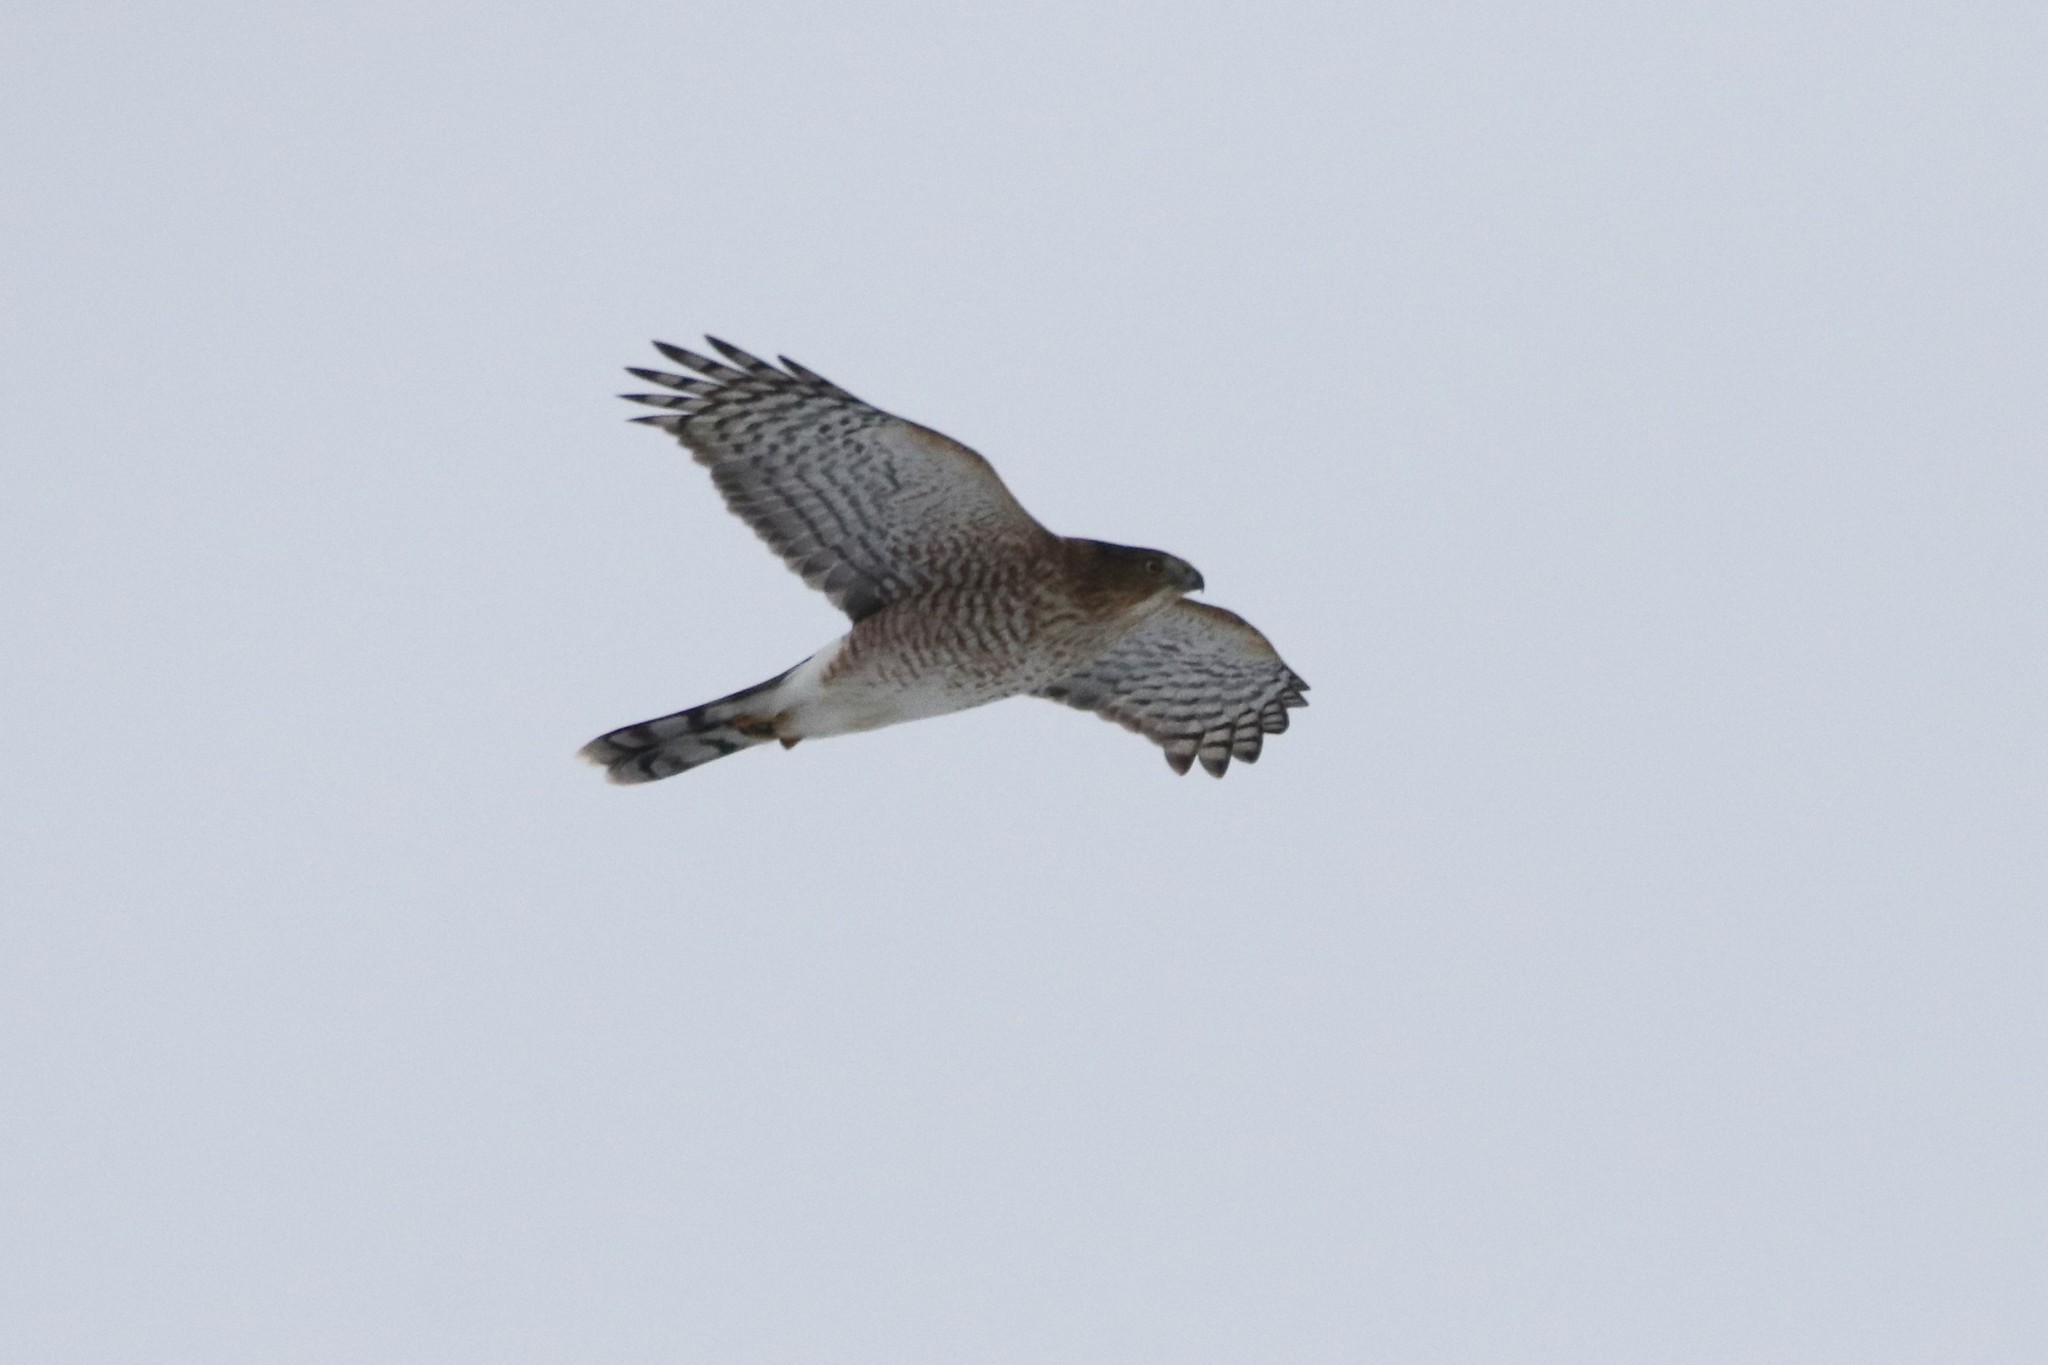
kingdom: Animalia
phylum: Chordata
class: Aves
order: Accipitriformes
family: Accipitridae
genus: Accipiter
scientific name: Accipiter cooperii
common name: Cooper's hawk
